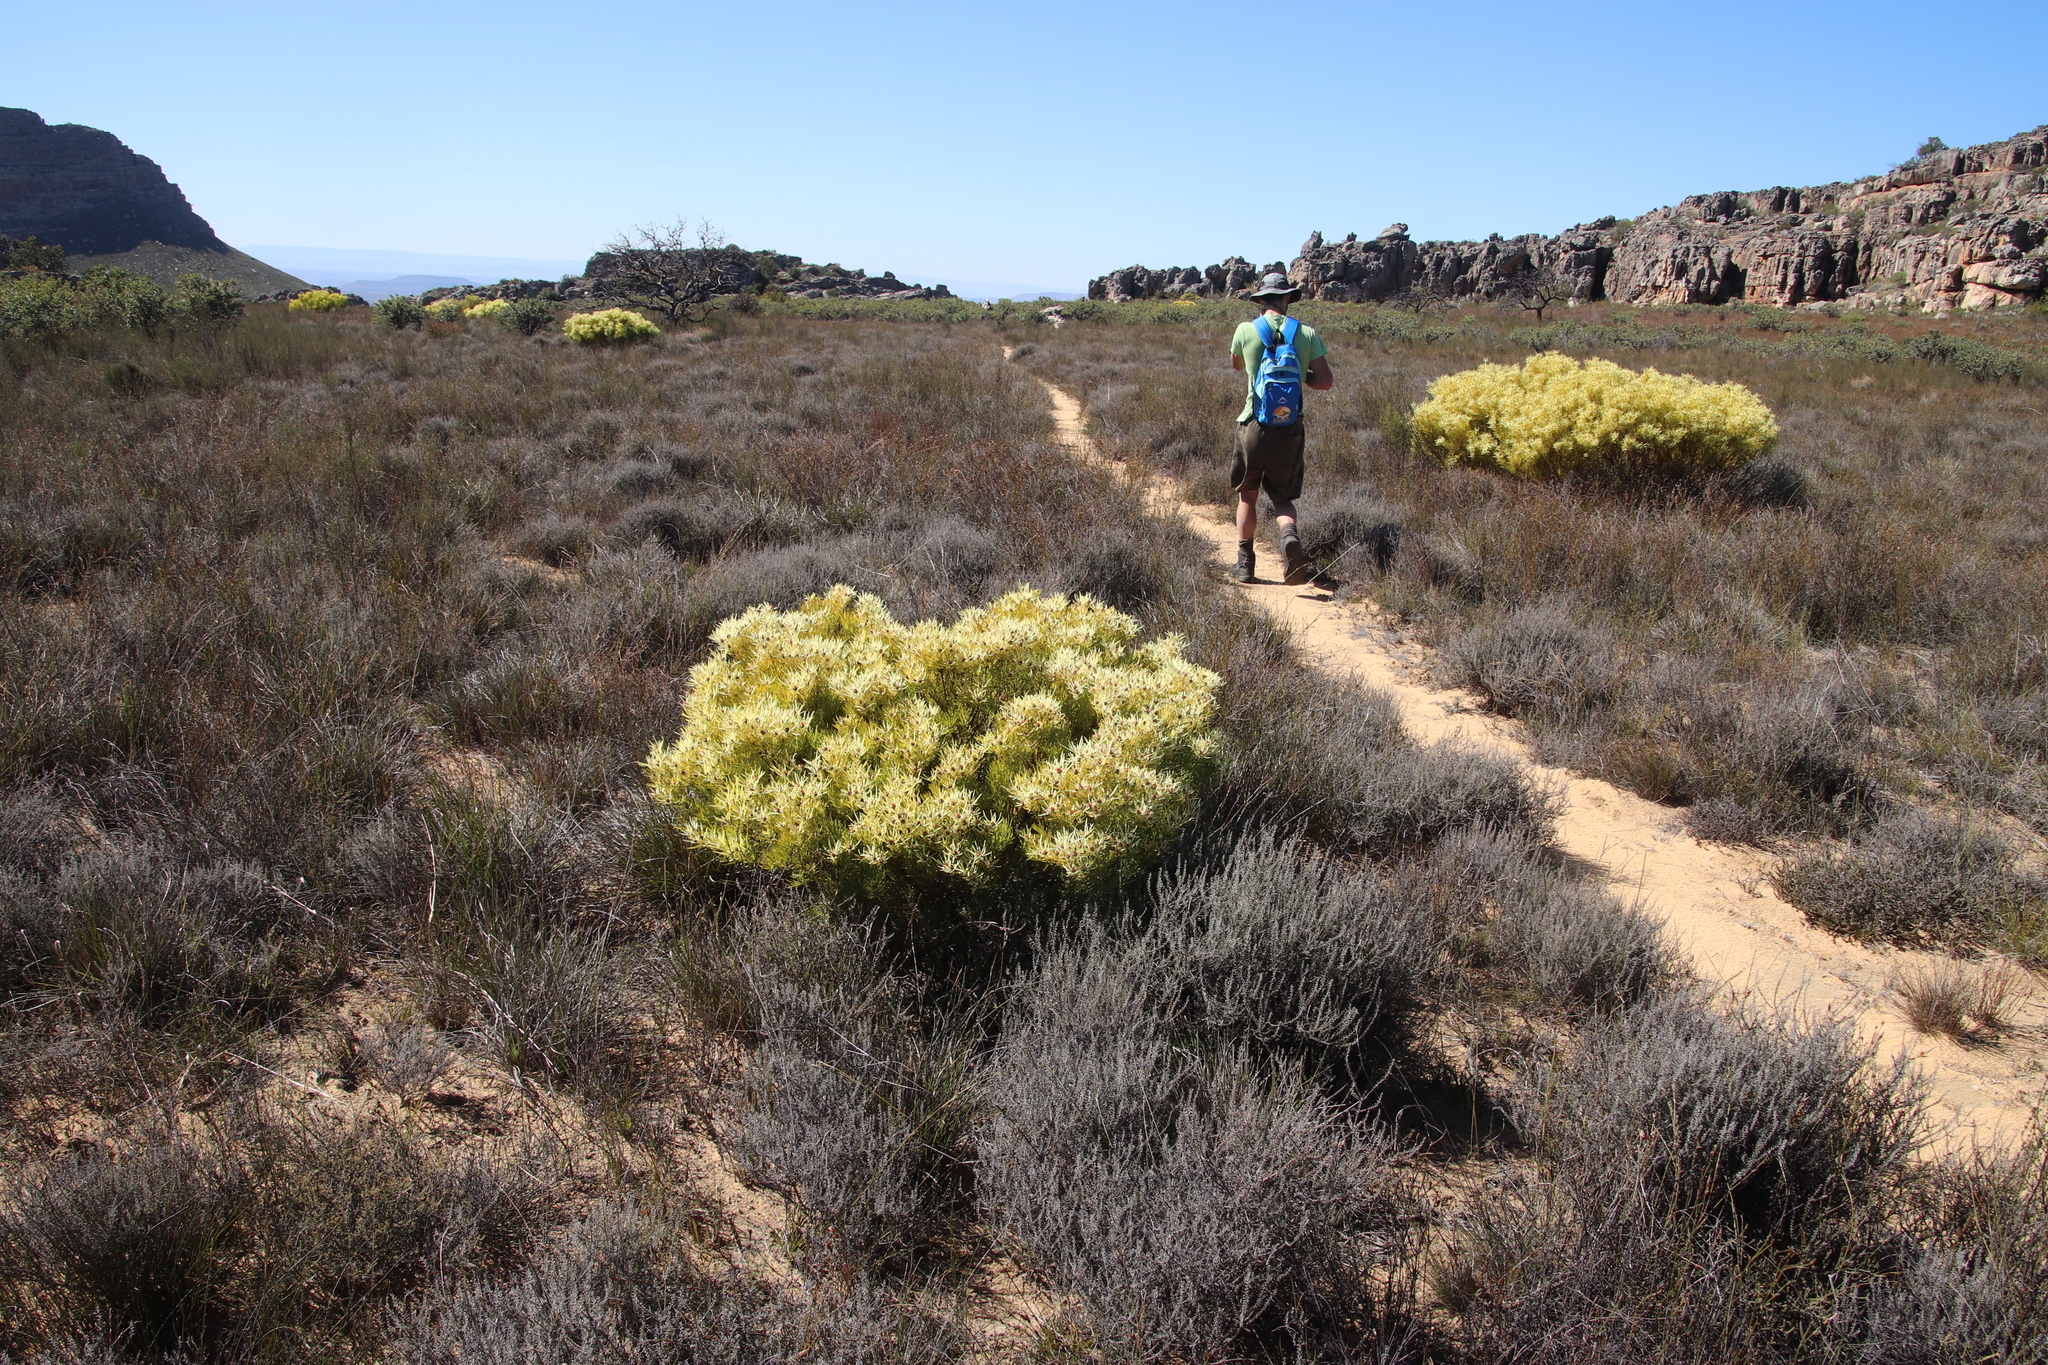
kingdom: Plantae
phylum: Tracheophyta
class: Magnoliopsida
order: Proteales
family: Proteaceae
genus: Leucadendron
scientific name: Leucadendron salignum
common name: Common sunshine conebush
